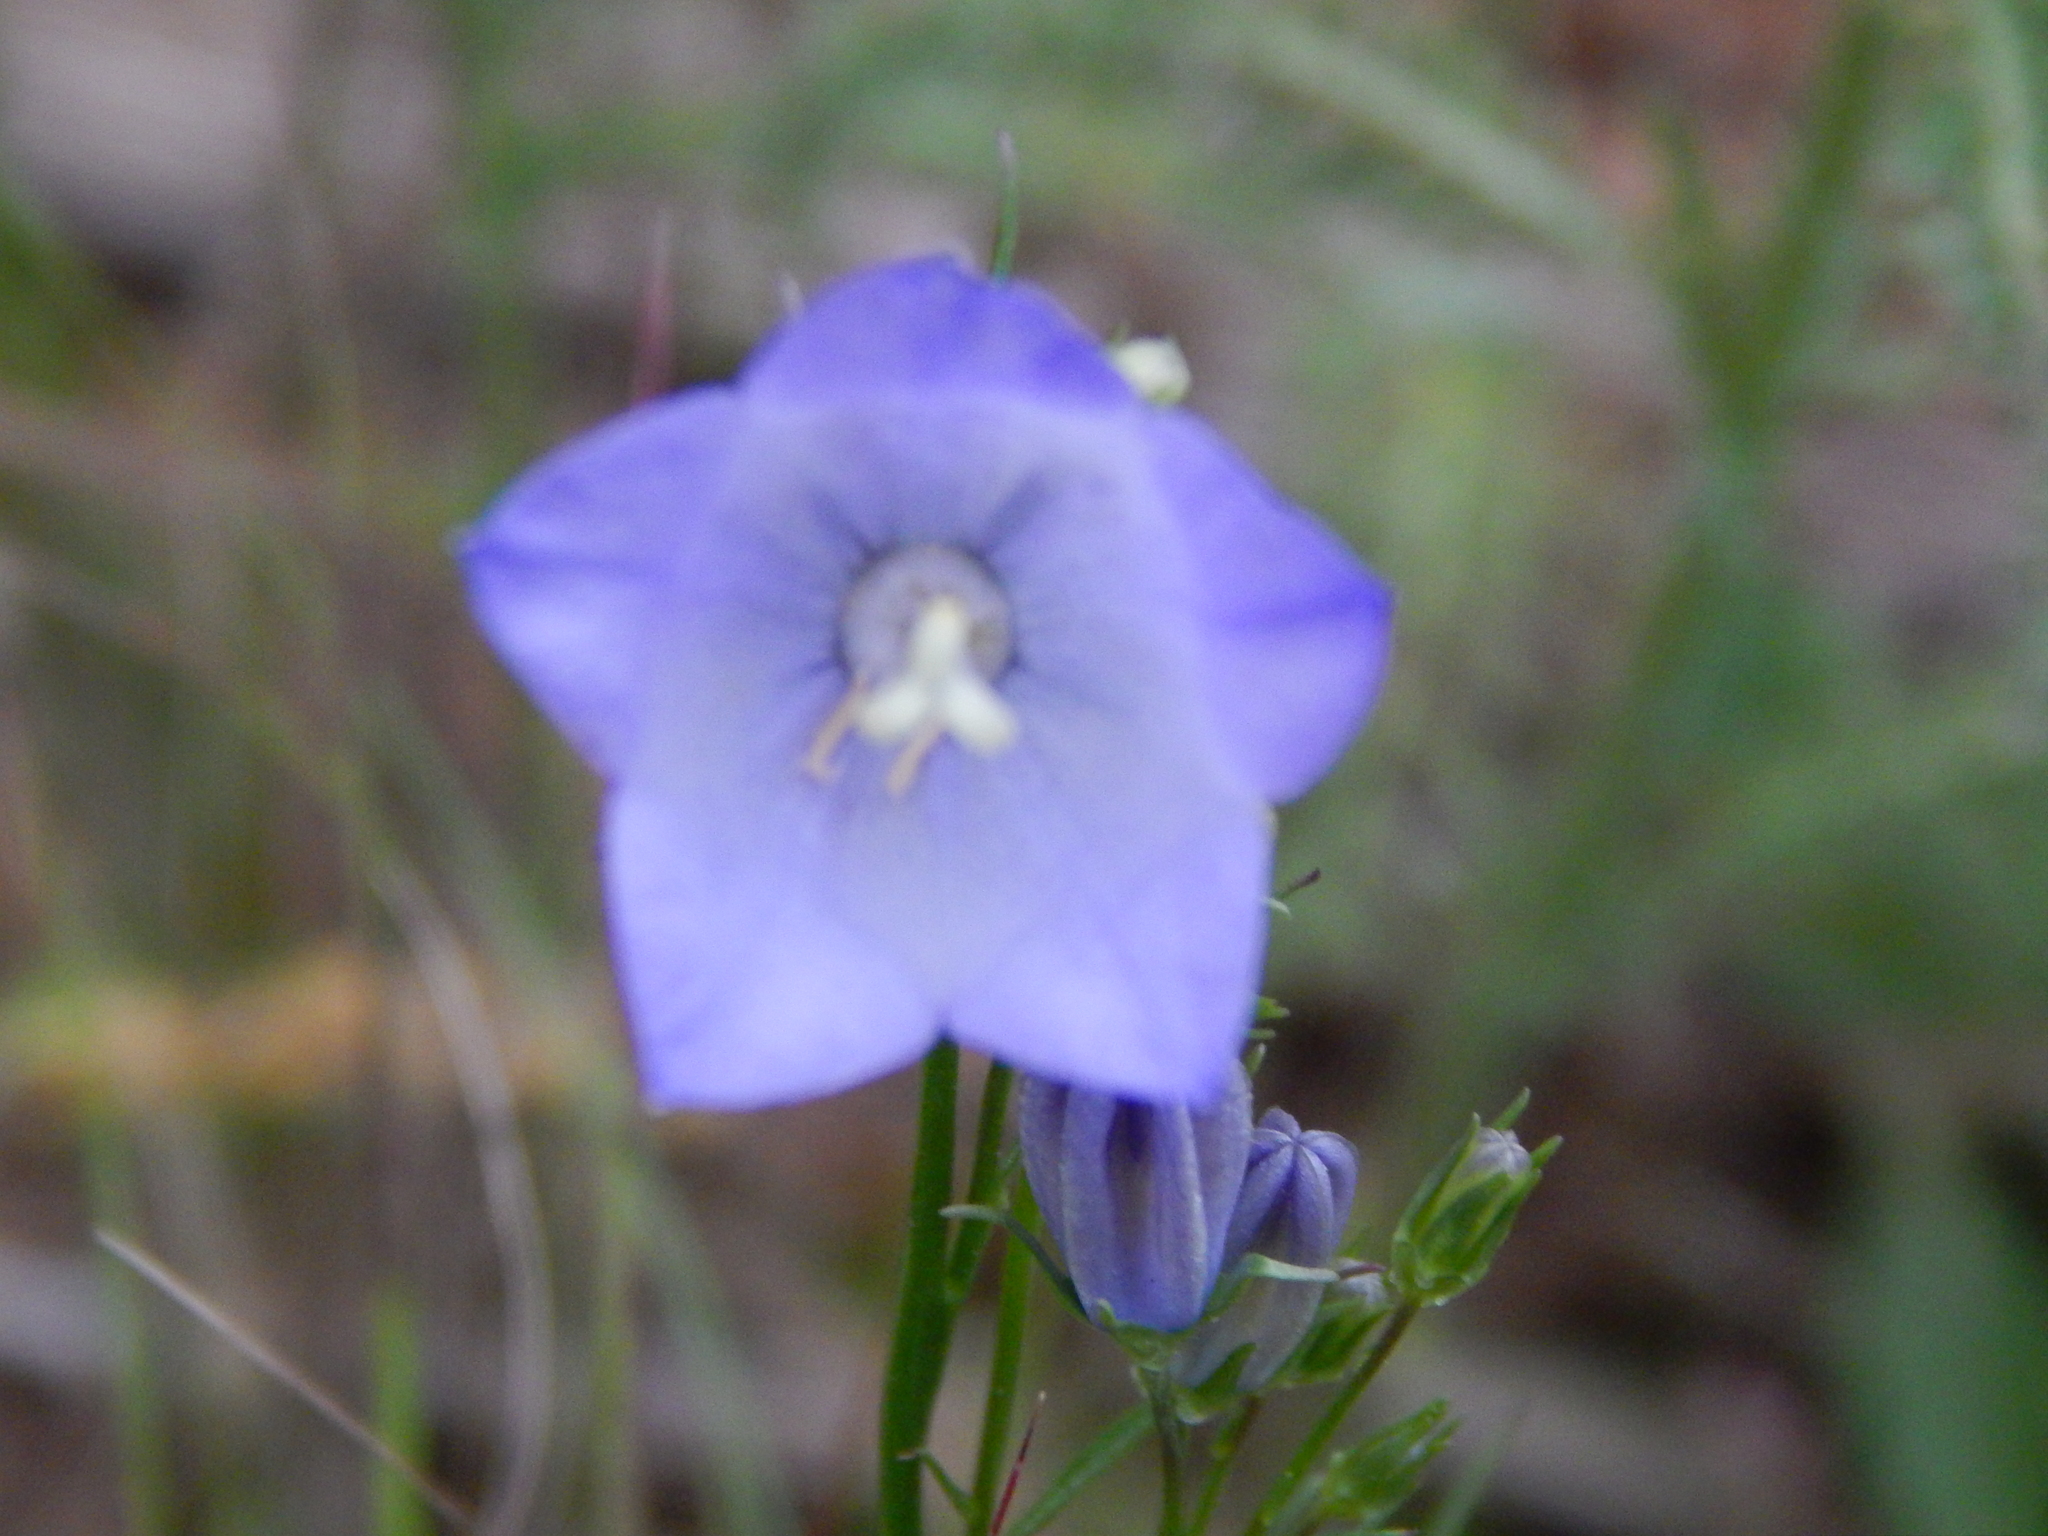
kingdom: Plantae
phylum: Tracheophyta
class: Magnoliopsida
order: Asterales
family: Campanulaceae
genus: Campanula
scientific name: Campanula
